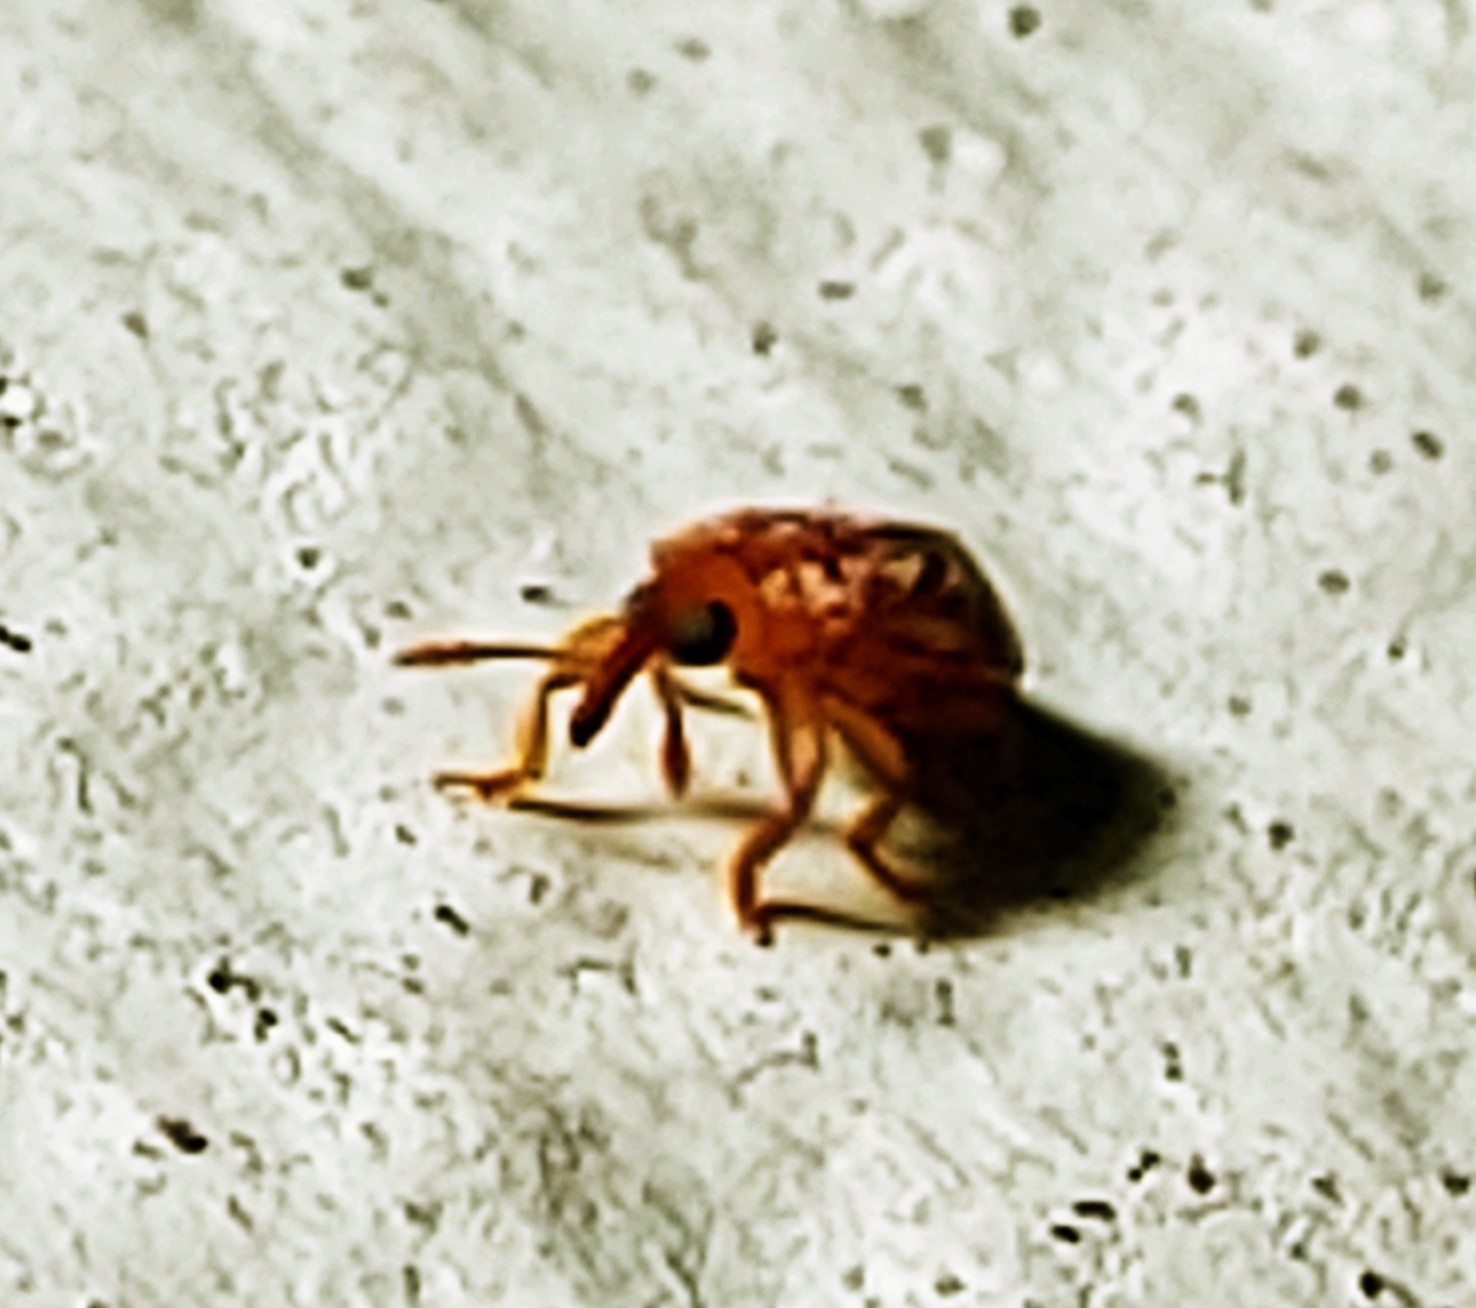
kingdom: Animalia
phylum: Arthropoda
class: Insecta
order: Coleoptera
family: Belidae
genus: Rhopalotria
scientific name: Rhopalotria furfuracea
